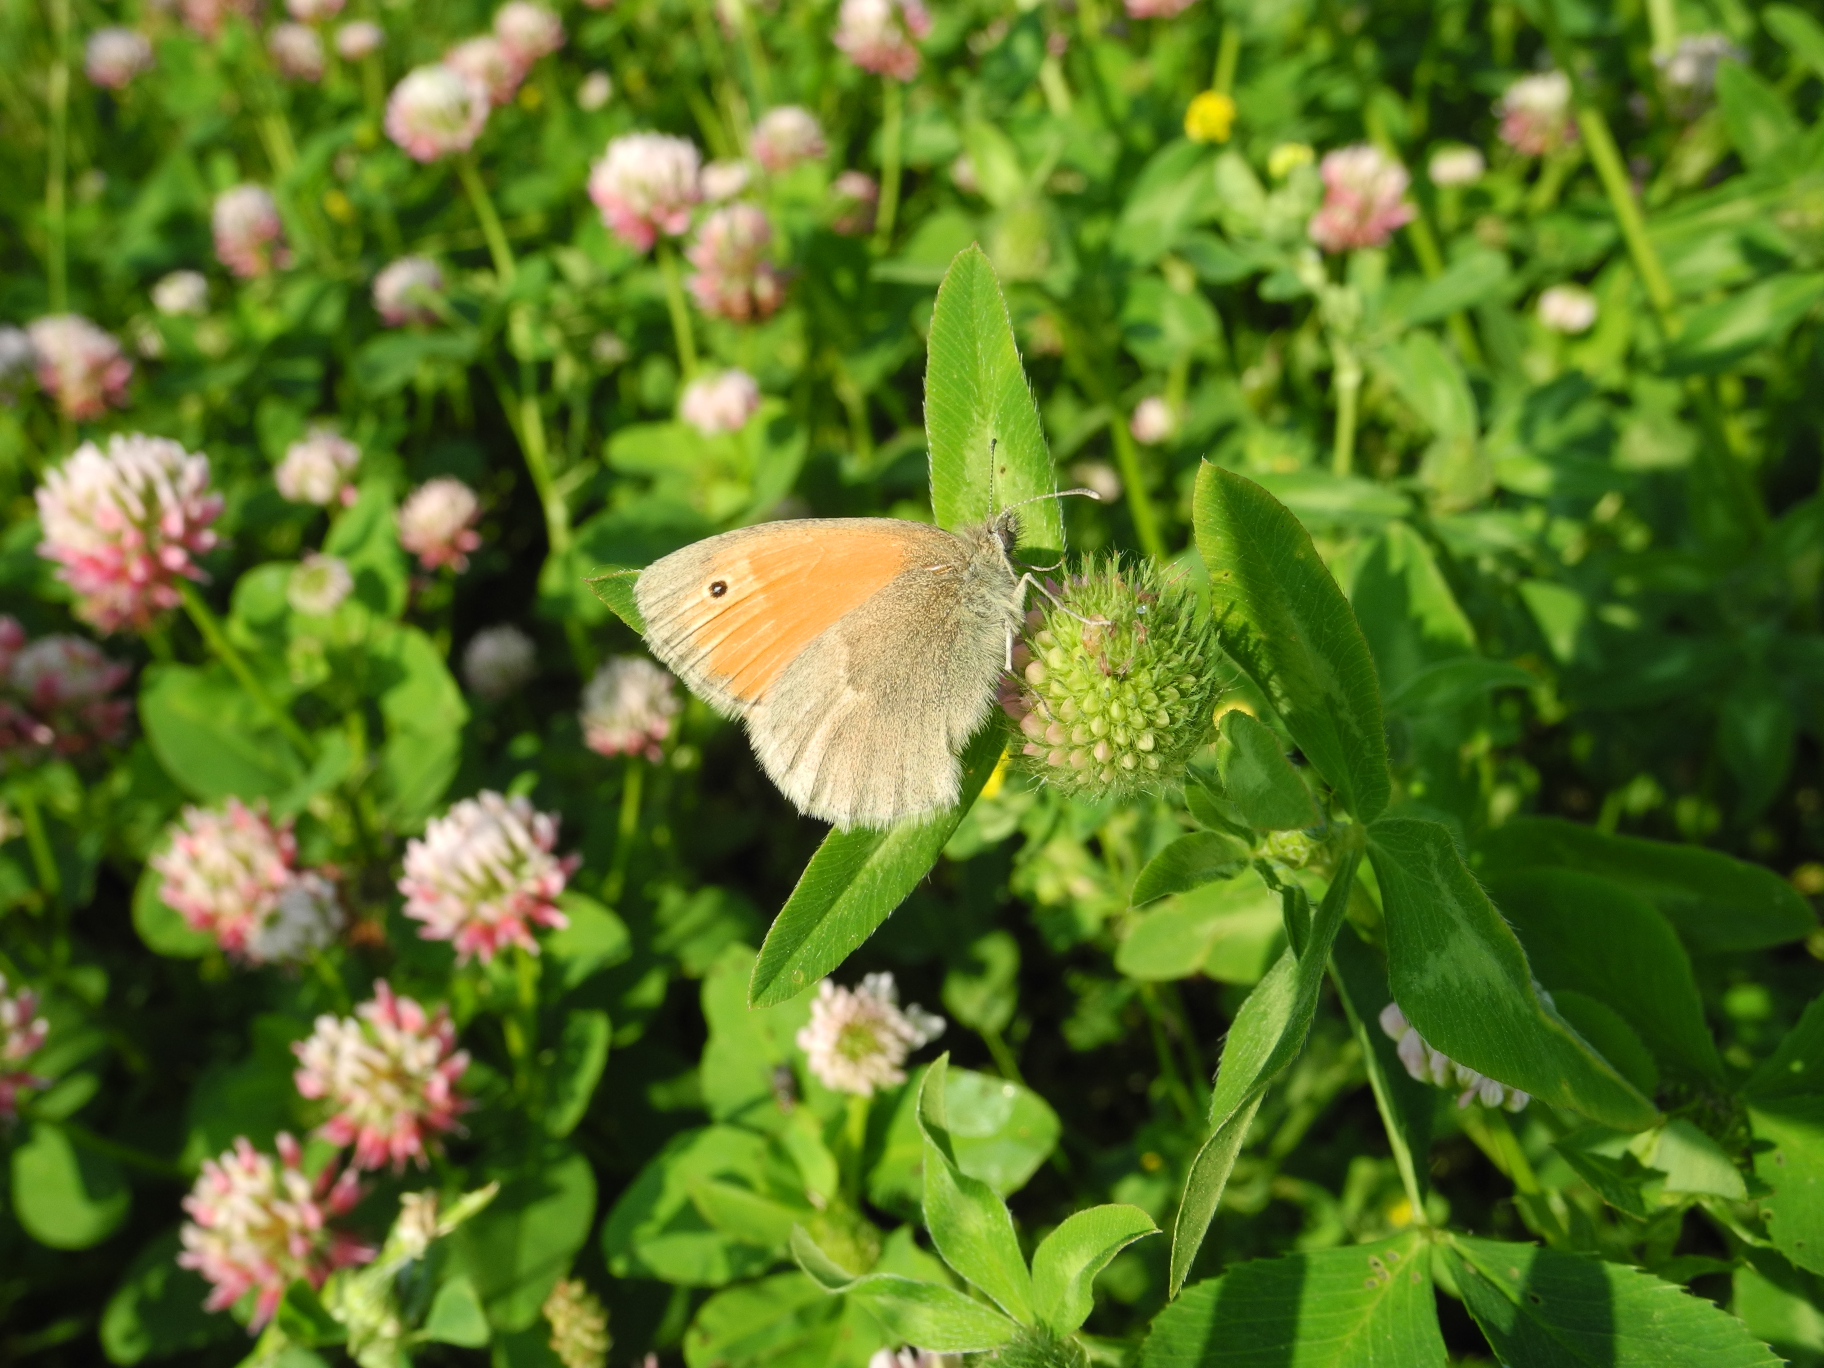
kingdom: Animalia
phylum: Arthropoda
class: Insecta
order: Lepidoptera
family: Nymphalidae
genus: Coenonympha
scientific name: Coenonympha pamphilus
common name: Small heath
